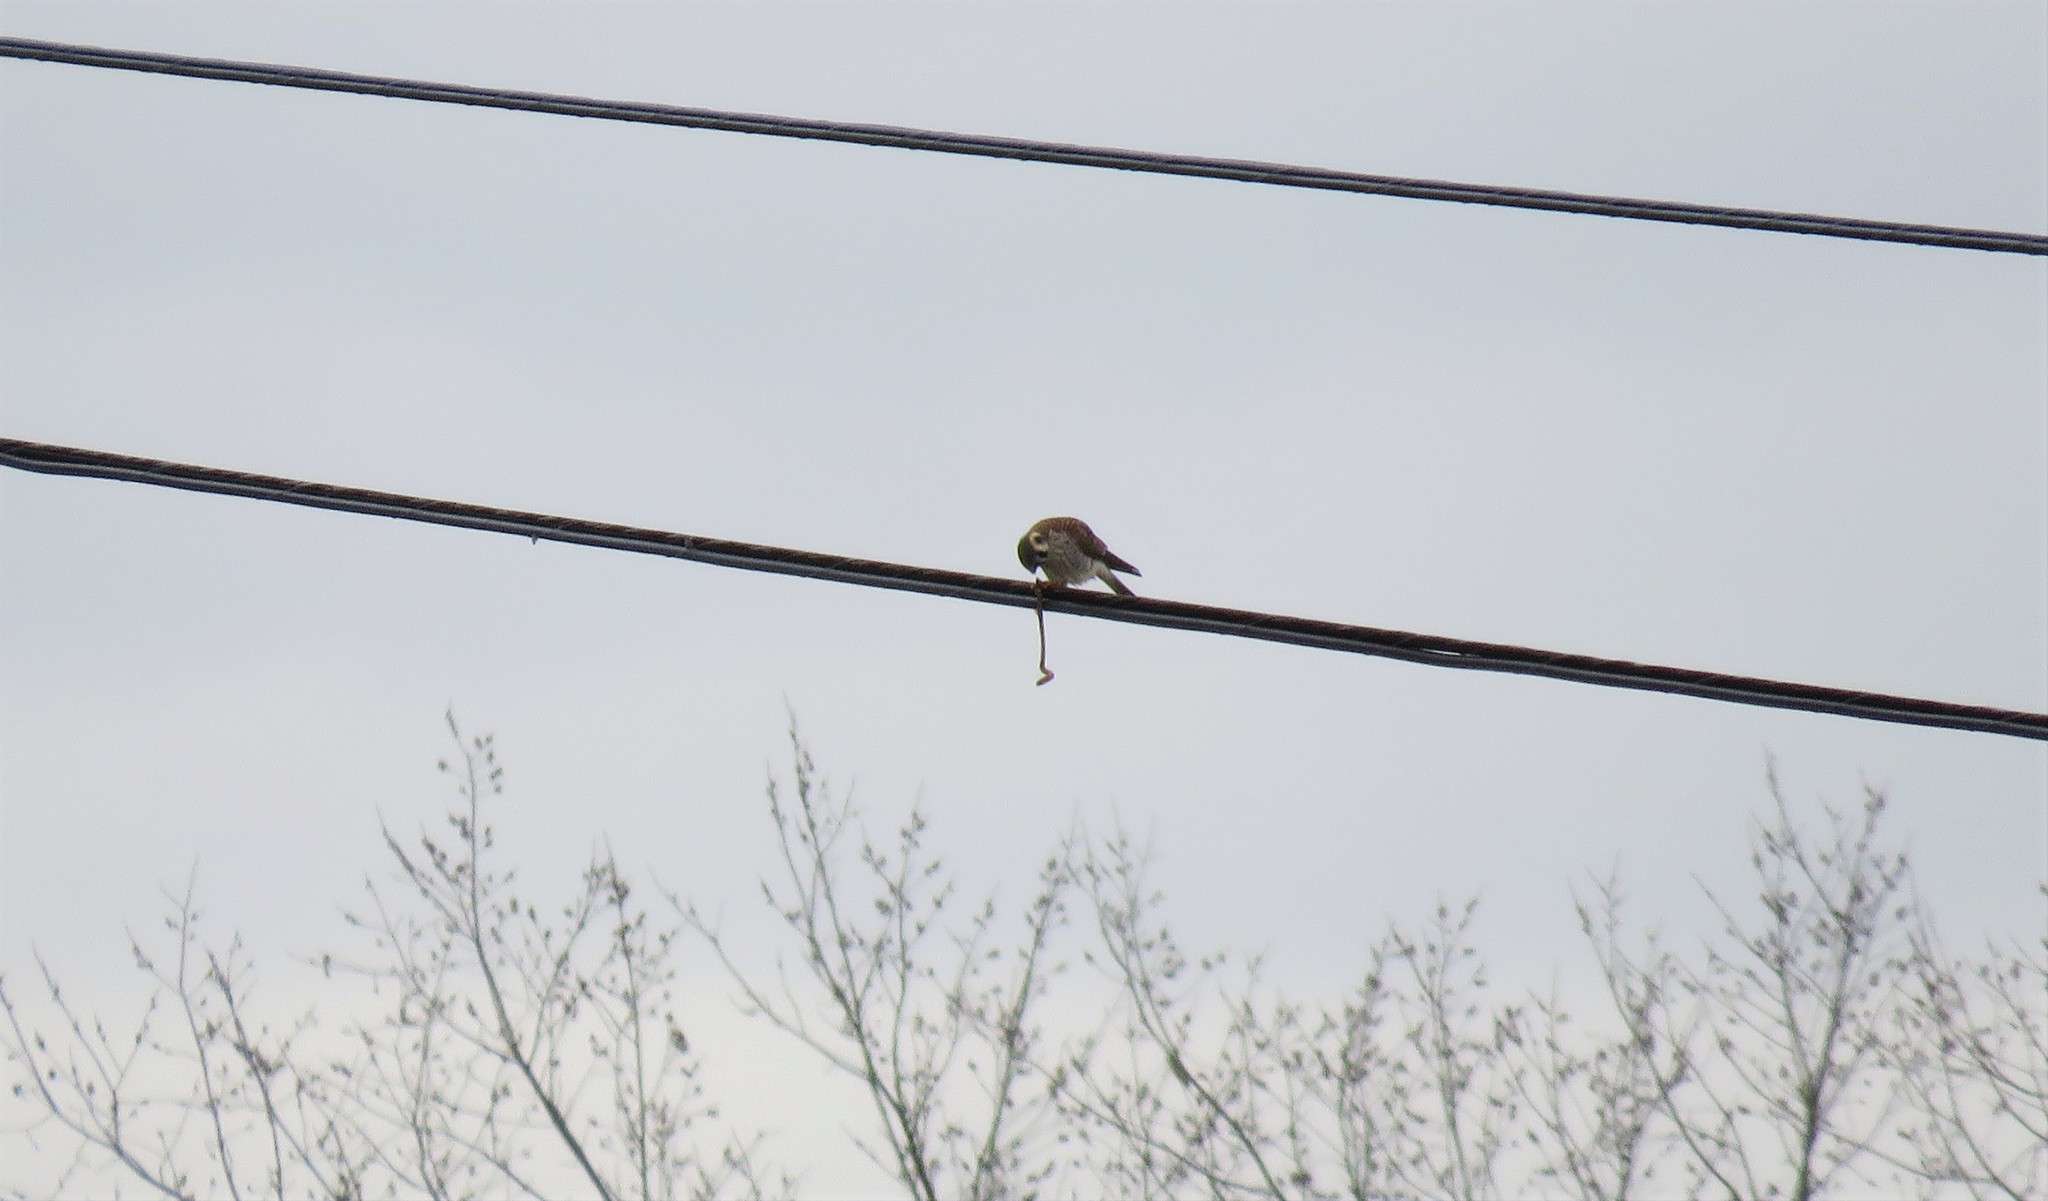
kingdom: Animalia
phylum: Chordata
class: Aves
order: Falconiformes
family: Falconidae
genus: Falco
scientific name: Falco sparverius
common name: American kestrel
